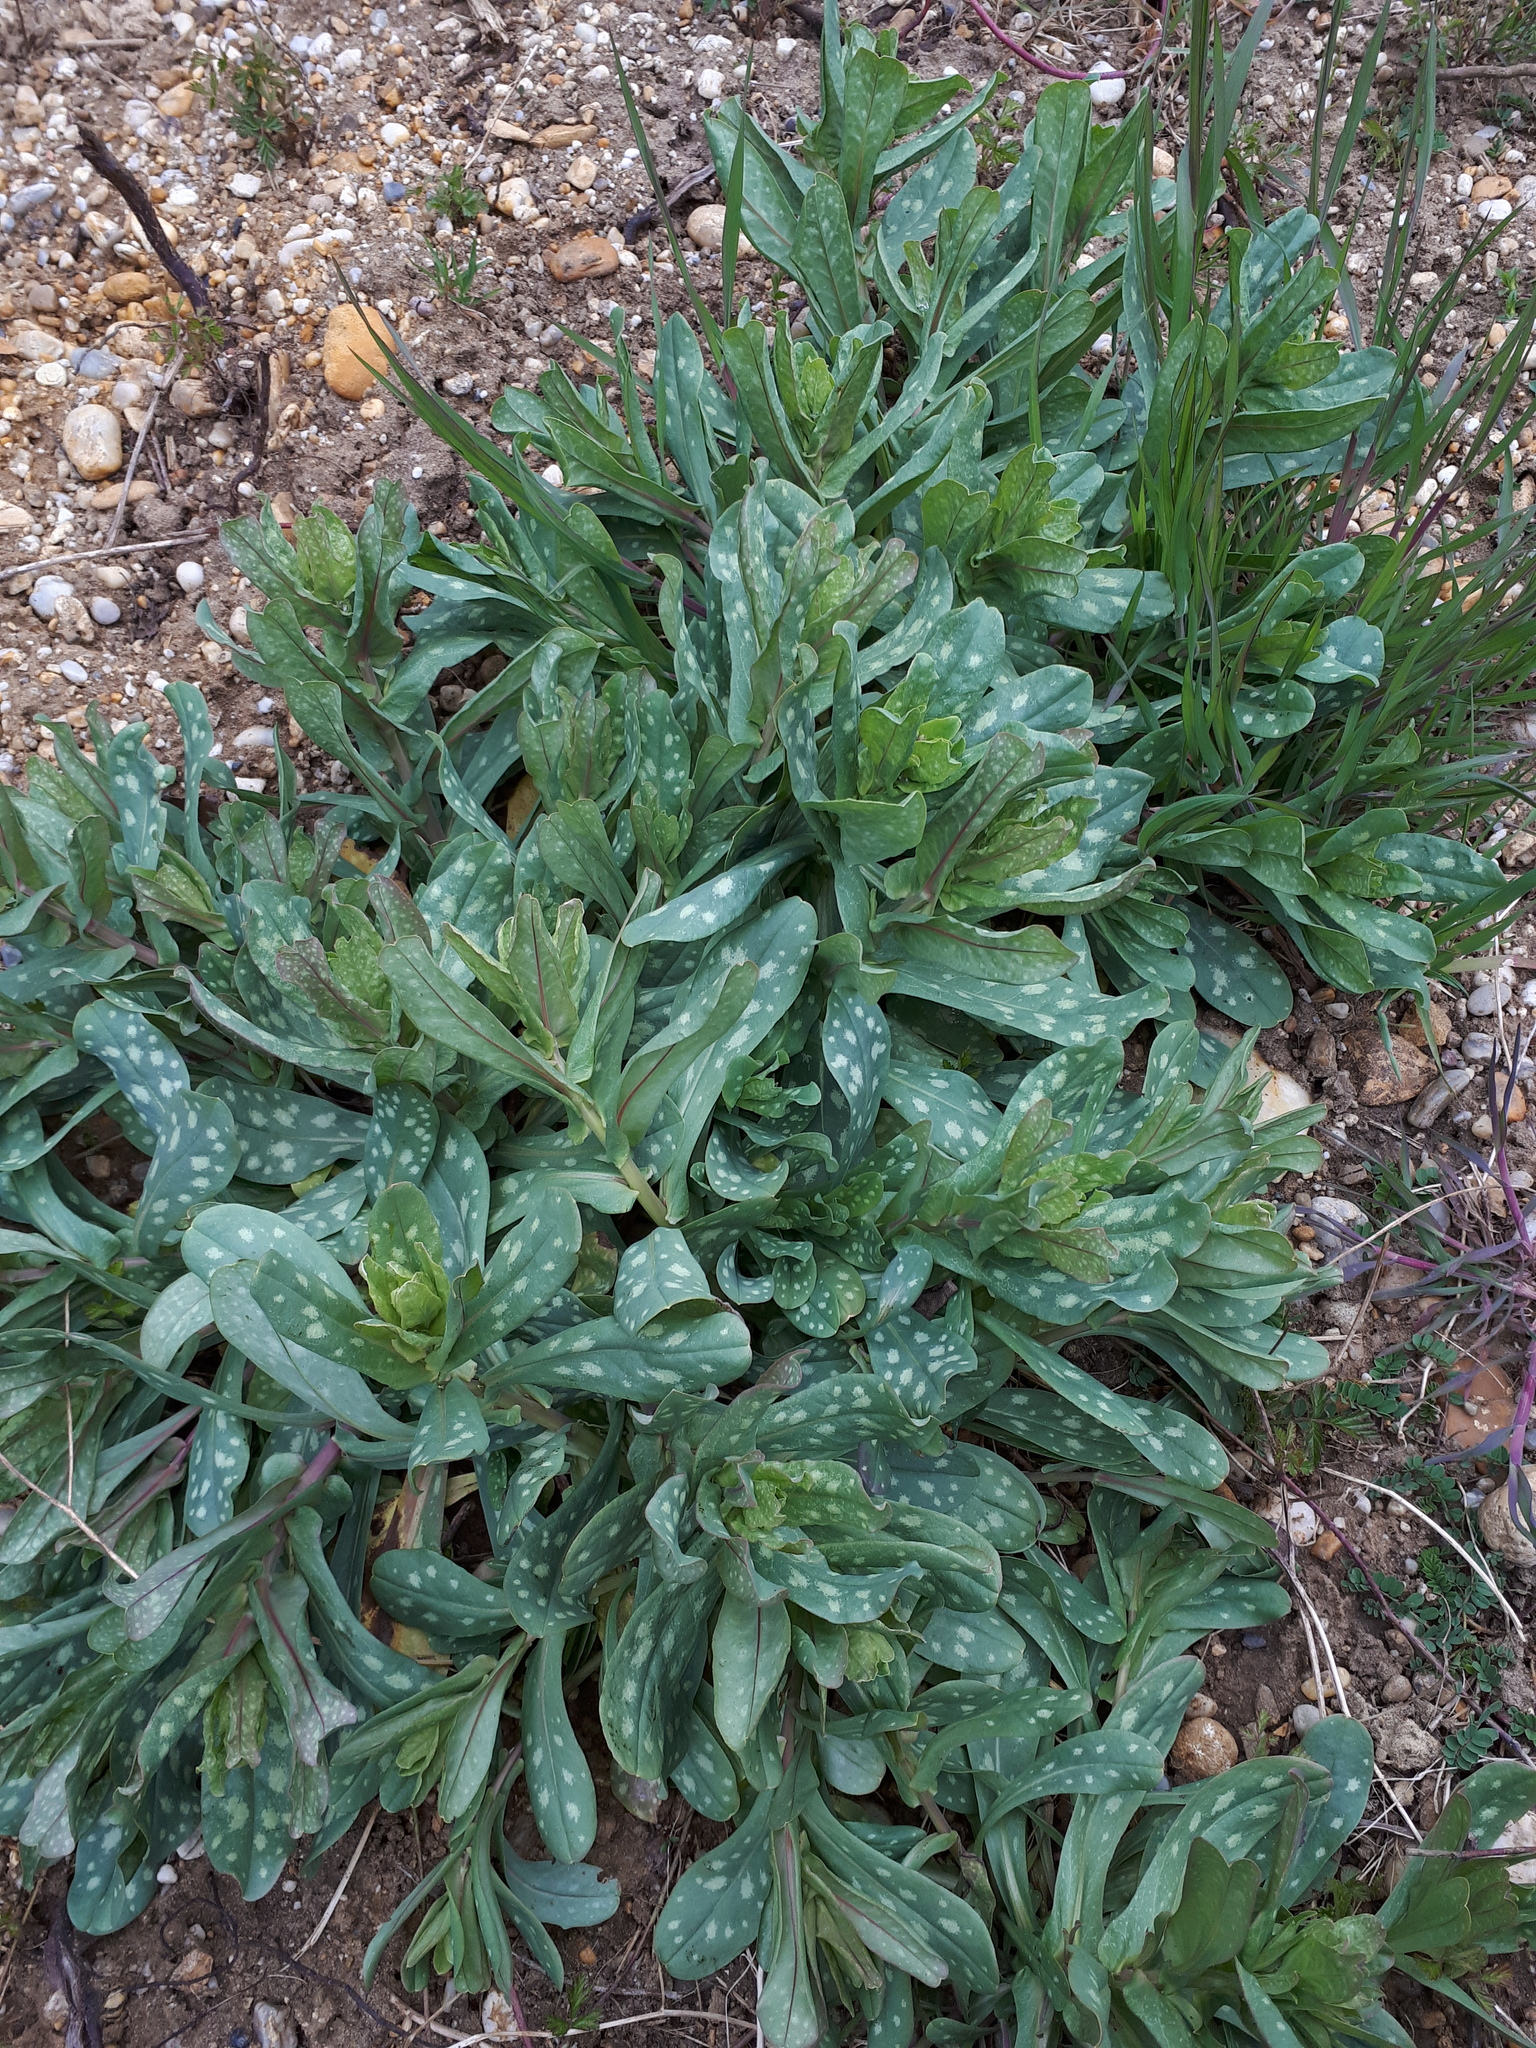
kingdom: Plantae
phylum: Tracheophyta
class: Magnoliopsida
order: Boraginales
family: Boraginaceae
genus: Cerinthe
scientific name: Cerinthe minor
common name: Lesser honeywort
